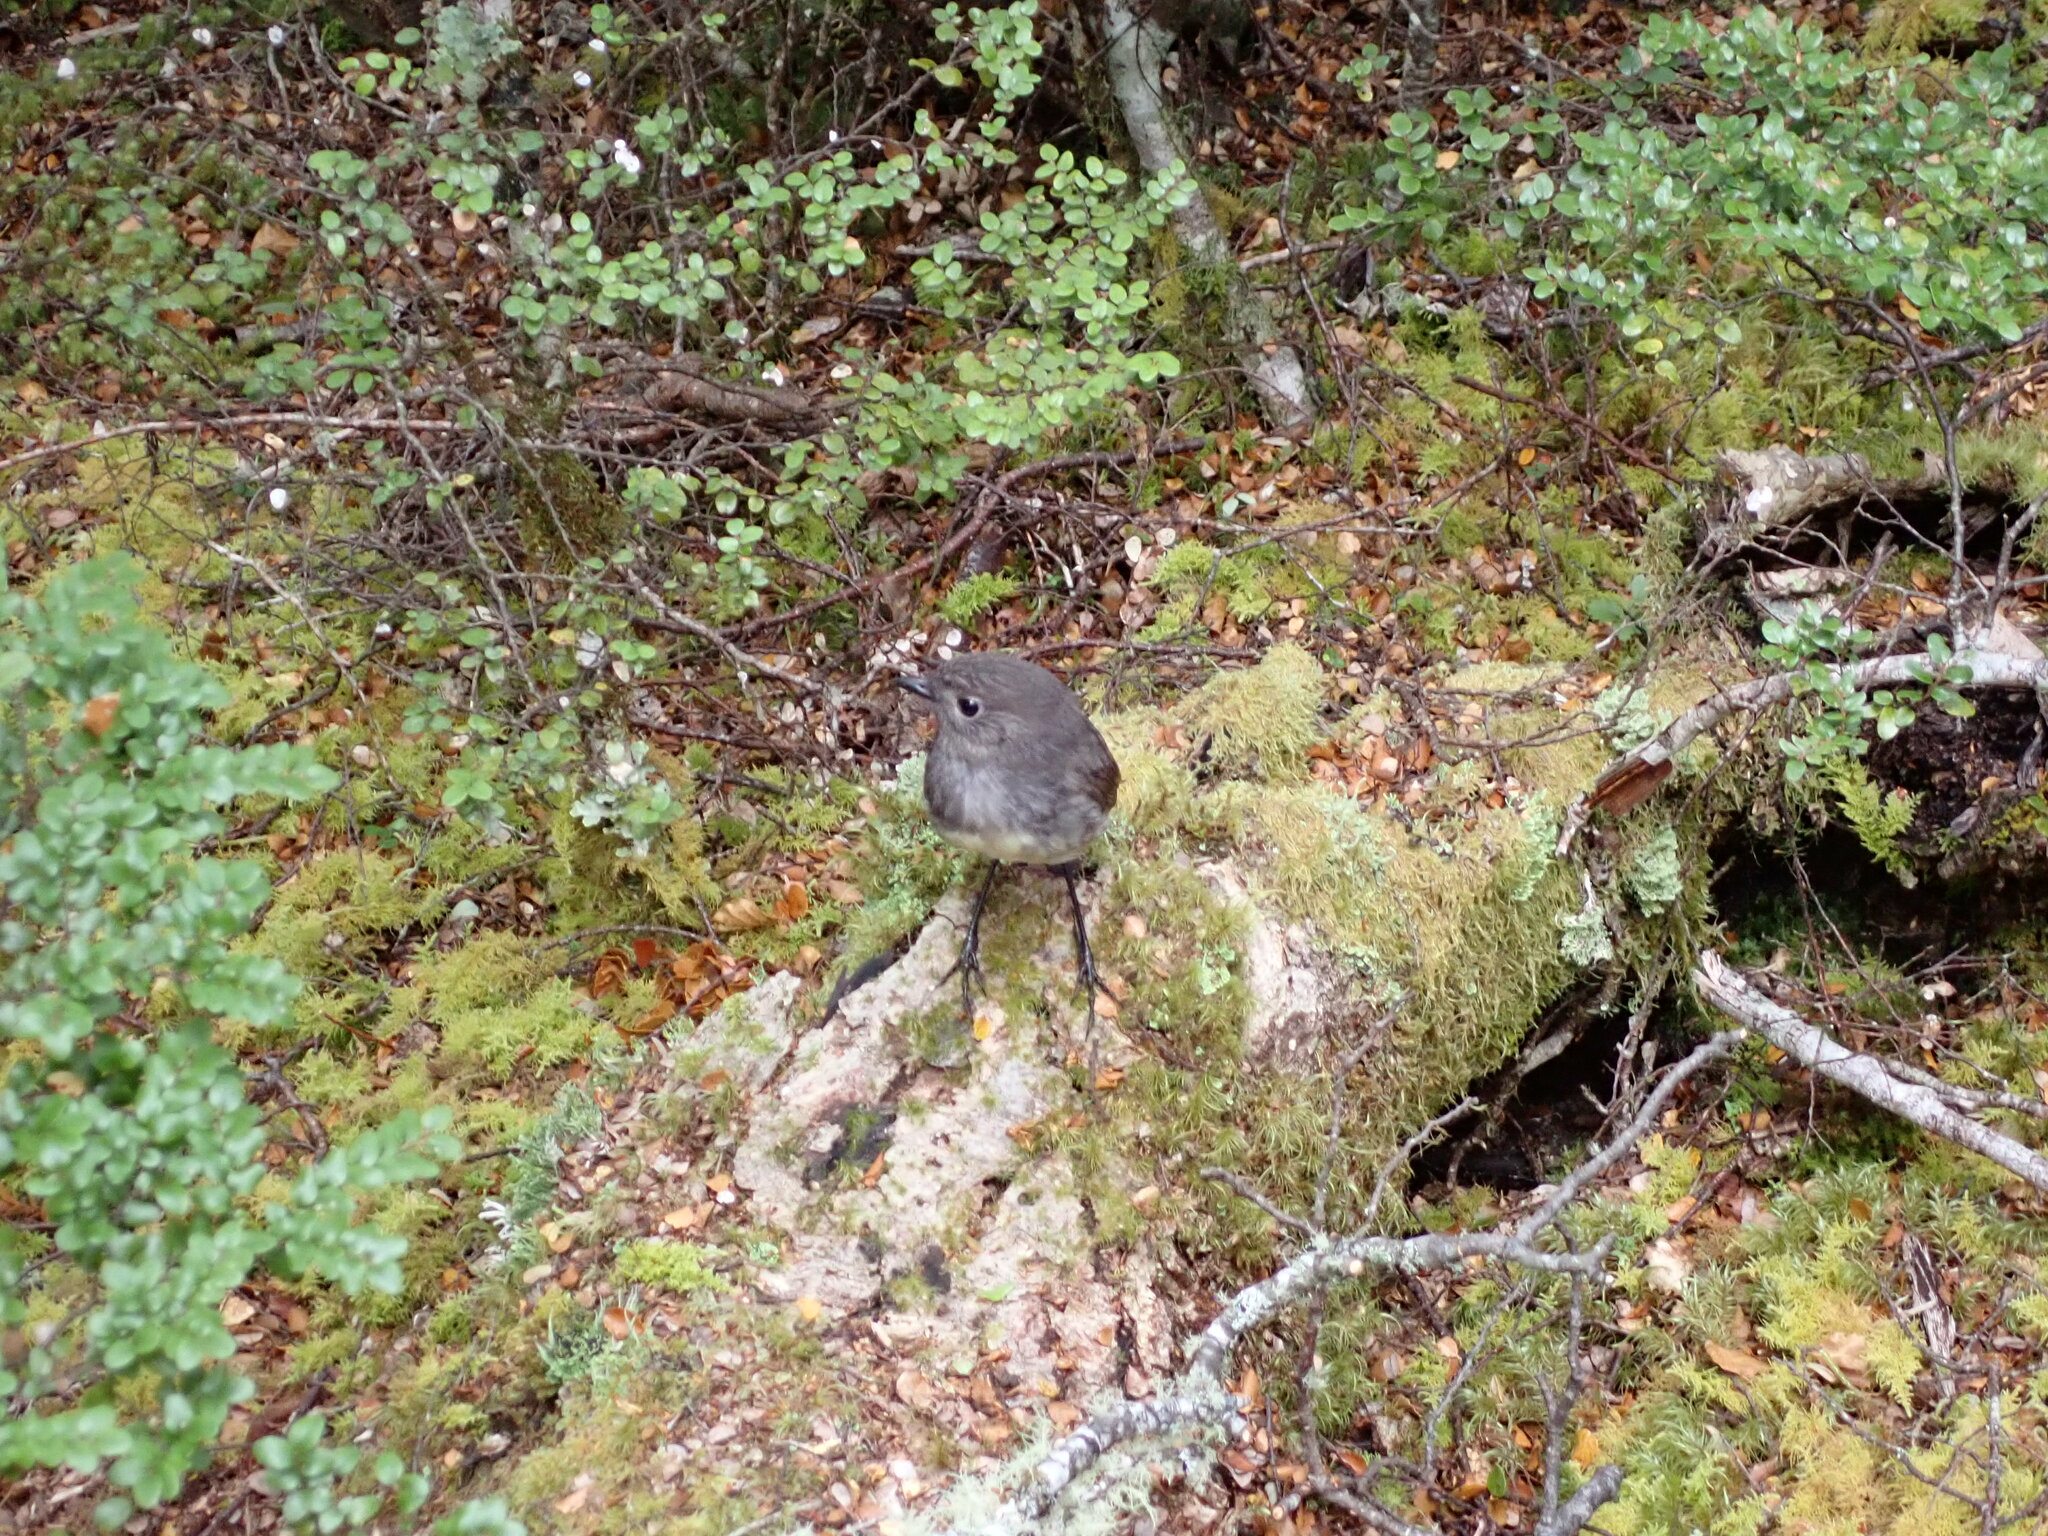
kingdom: Animalia
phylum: Chordata
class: Aves
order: Passeriformes
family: Petroicidae
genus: Petroica
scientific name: Petroica australis
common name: New zealand robin
